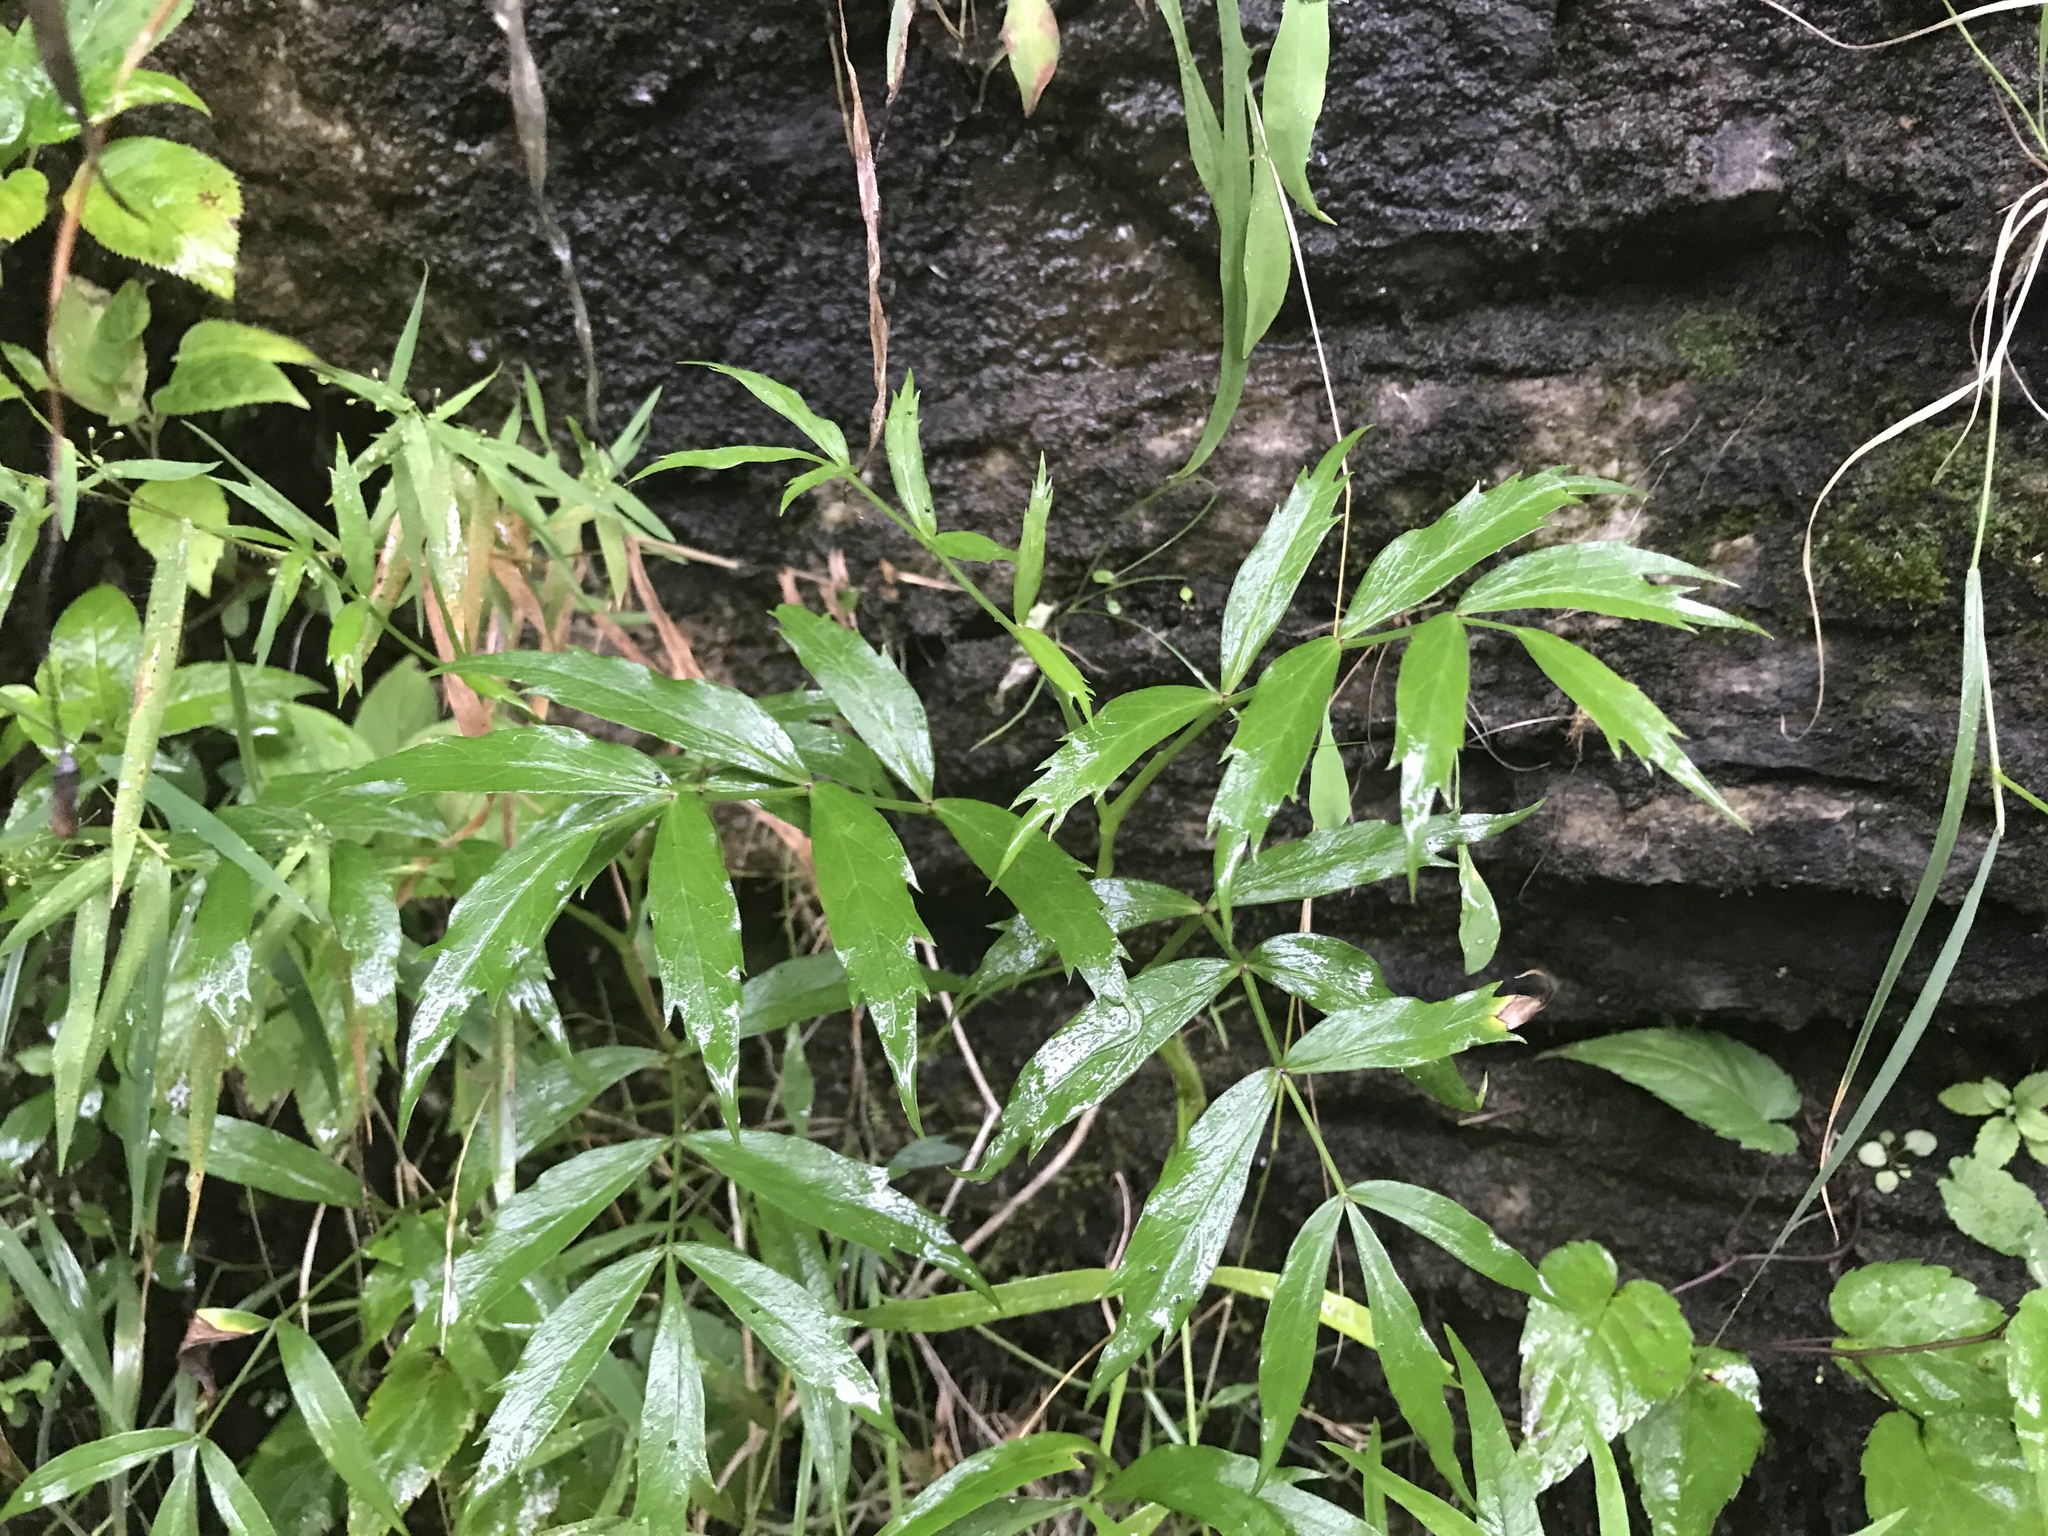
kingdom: Plantae
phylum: Tracheophyta
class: Magnoliopsida
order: Apiales
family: Apiaceae
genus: Oxypolis
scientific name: Oxypolis rigidior
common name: Cowbane
